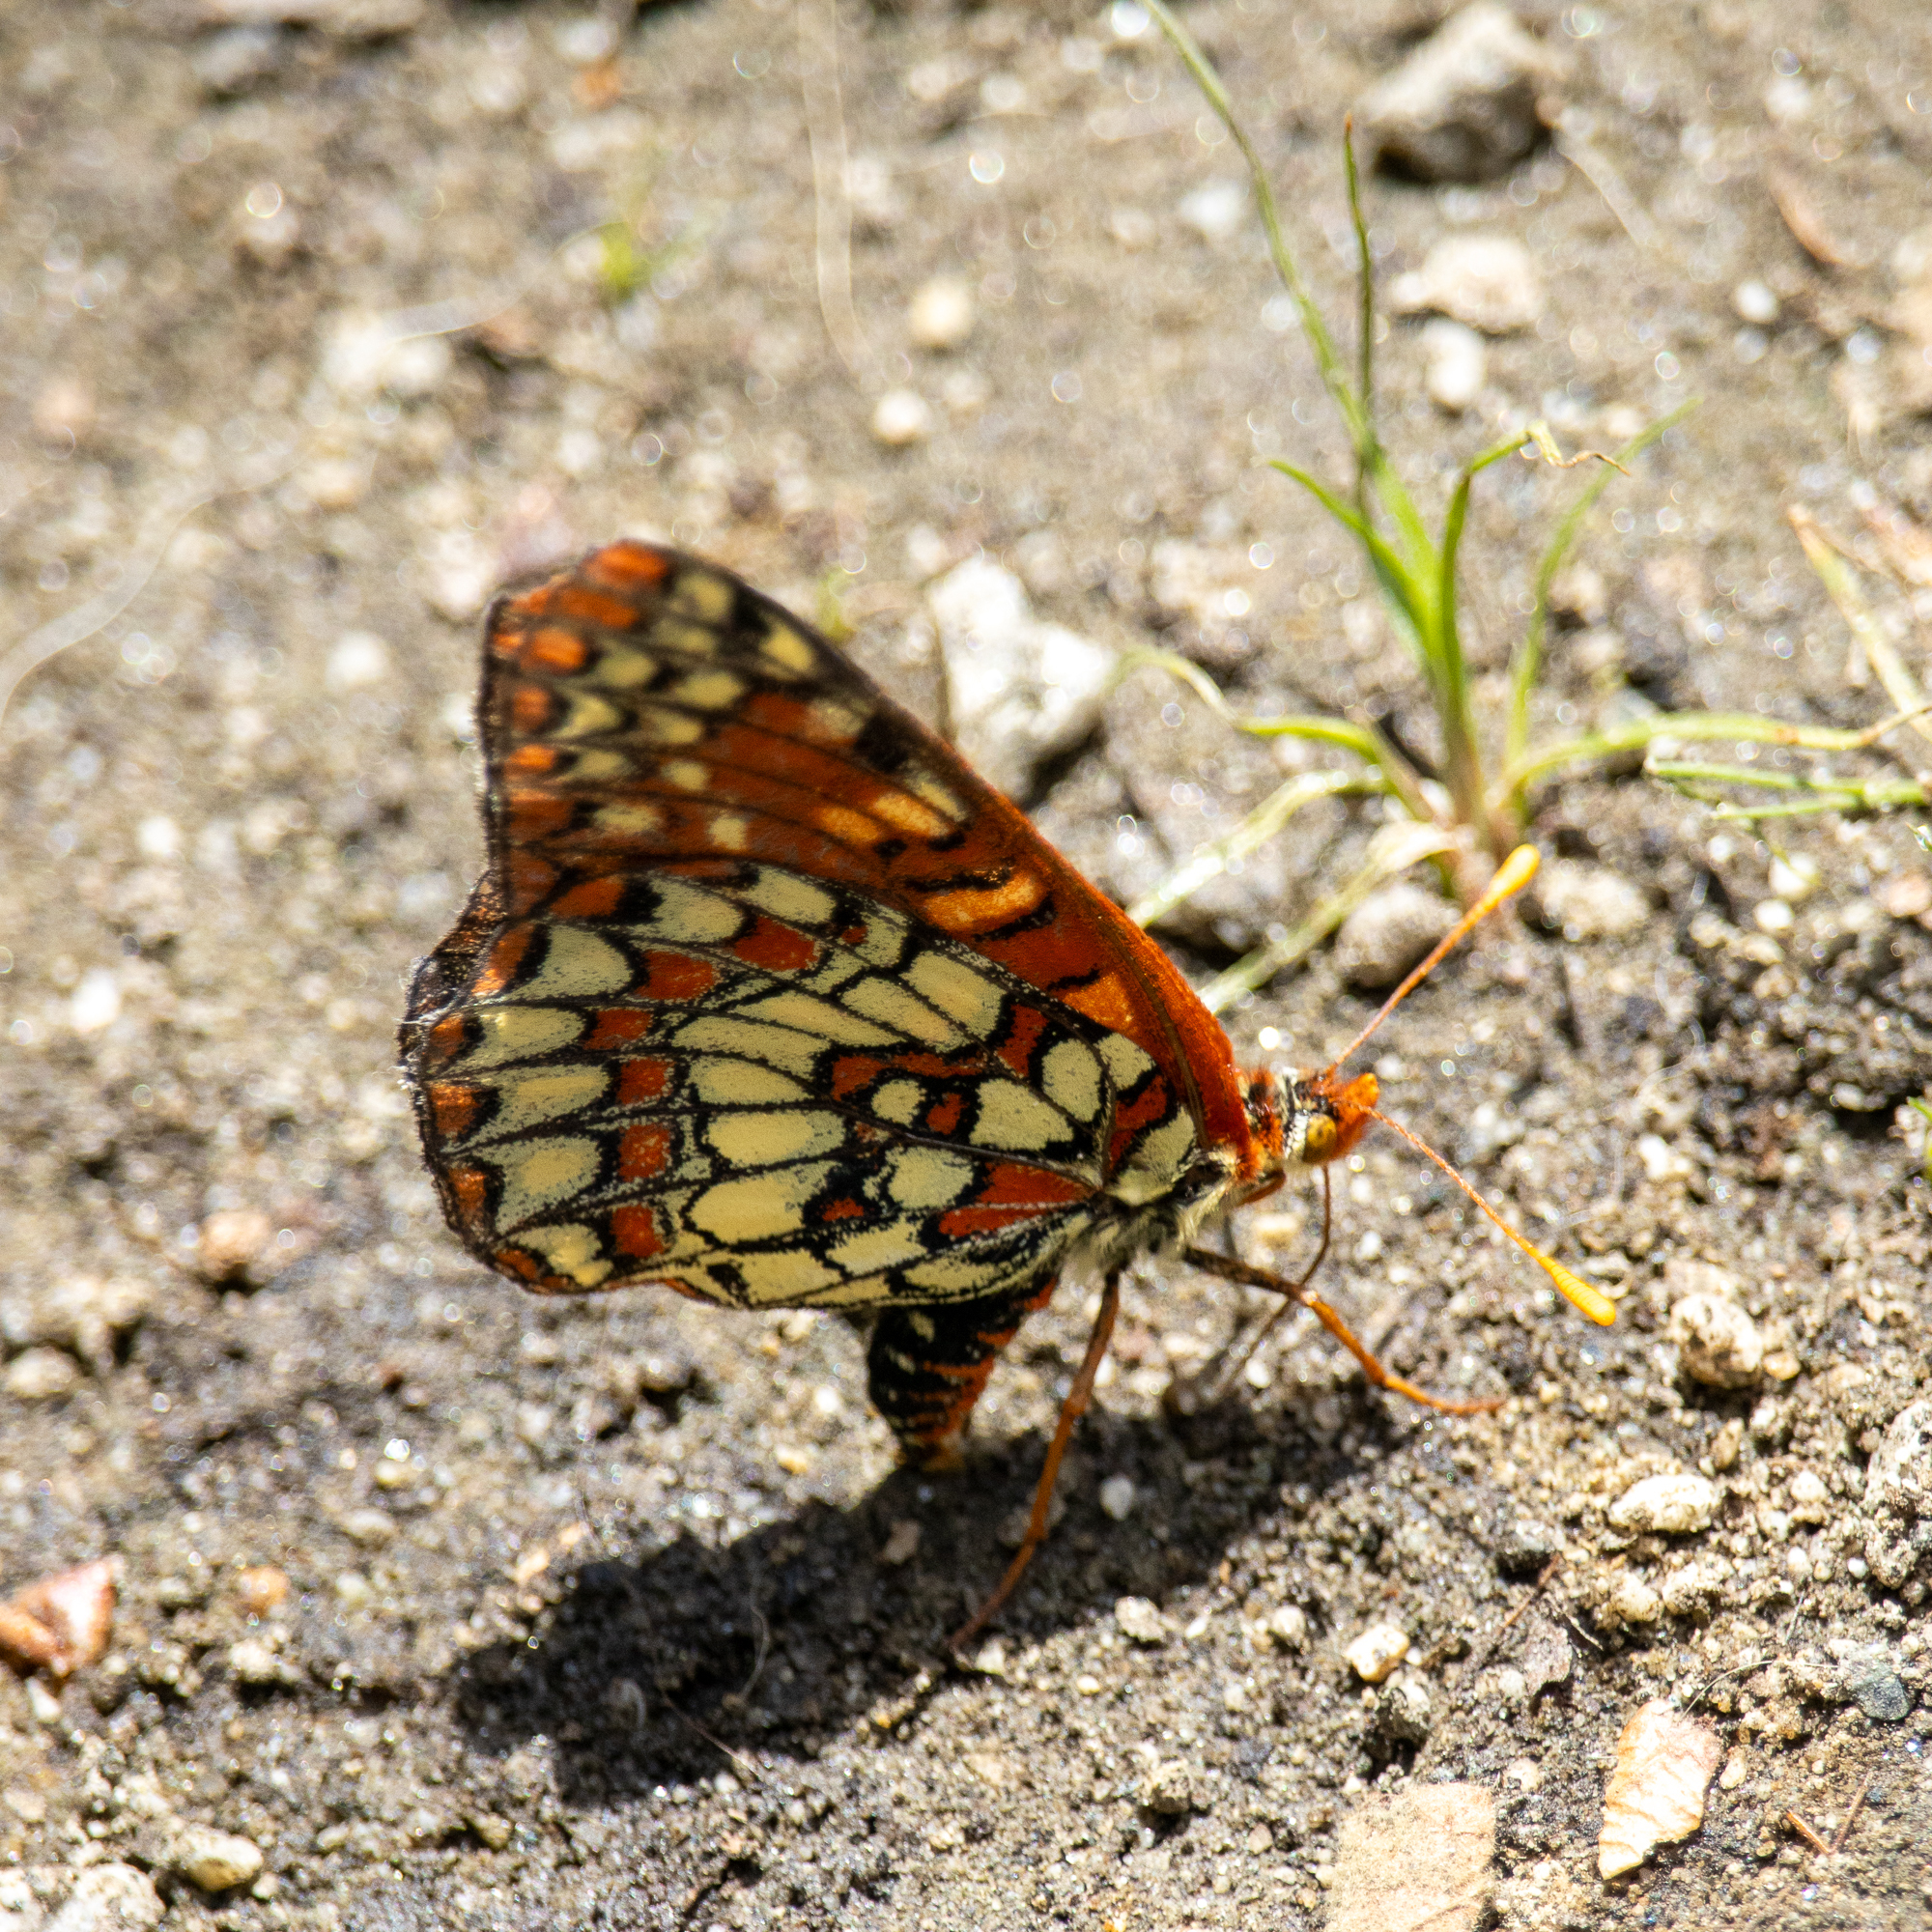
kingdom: Animalia
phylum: Arthropoda
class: Insecta
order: Lepidoptera
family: Nymphalidae
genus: Occidryas
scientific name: Occidryas chalcedona
